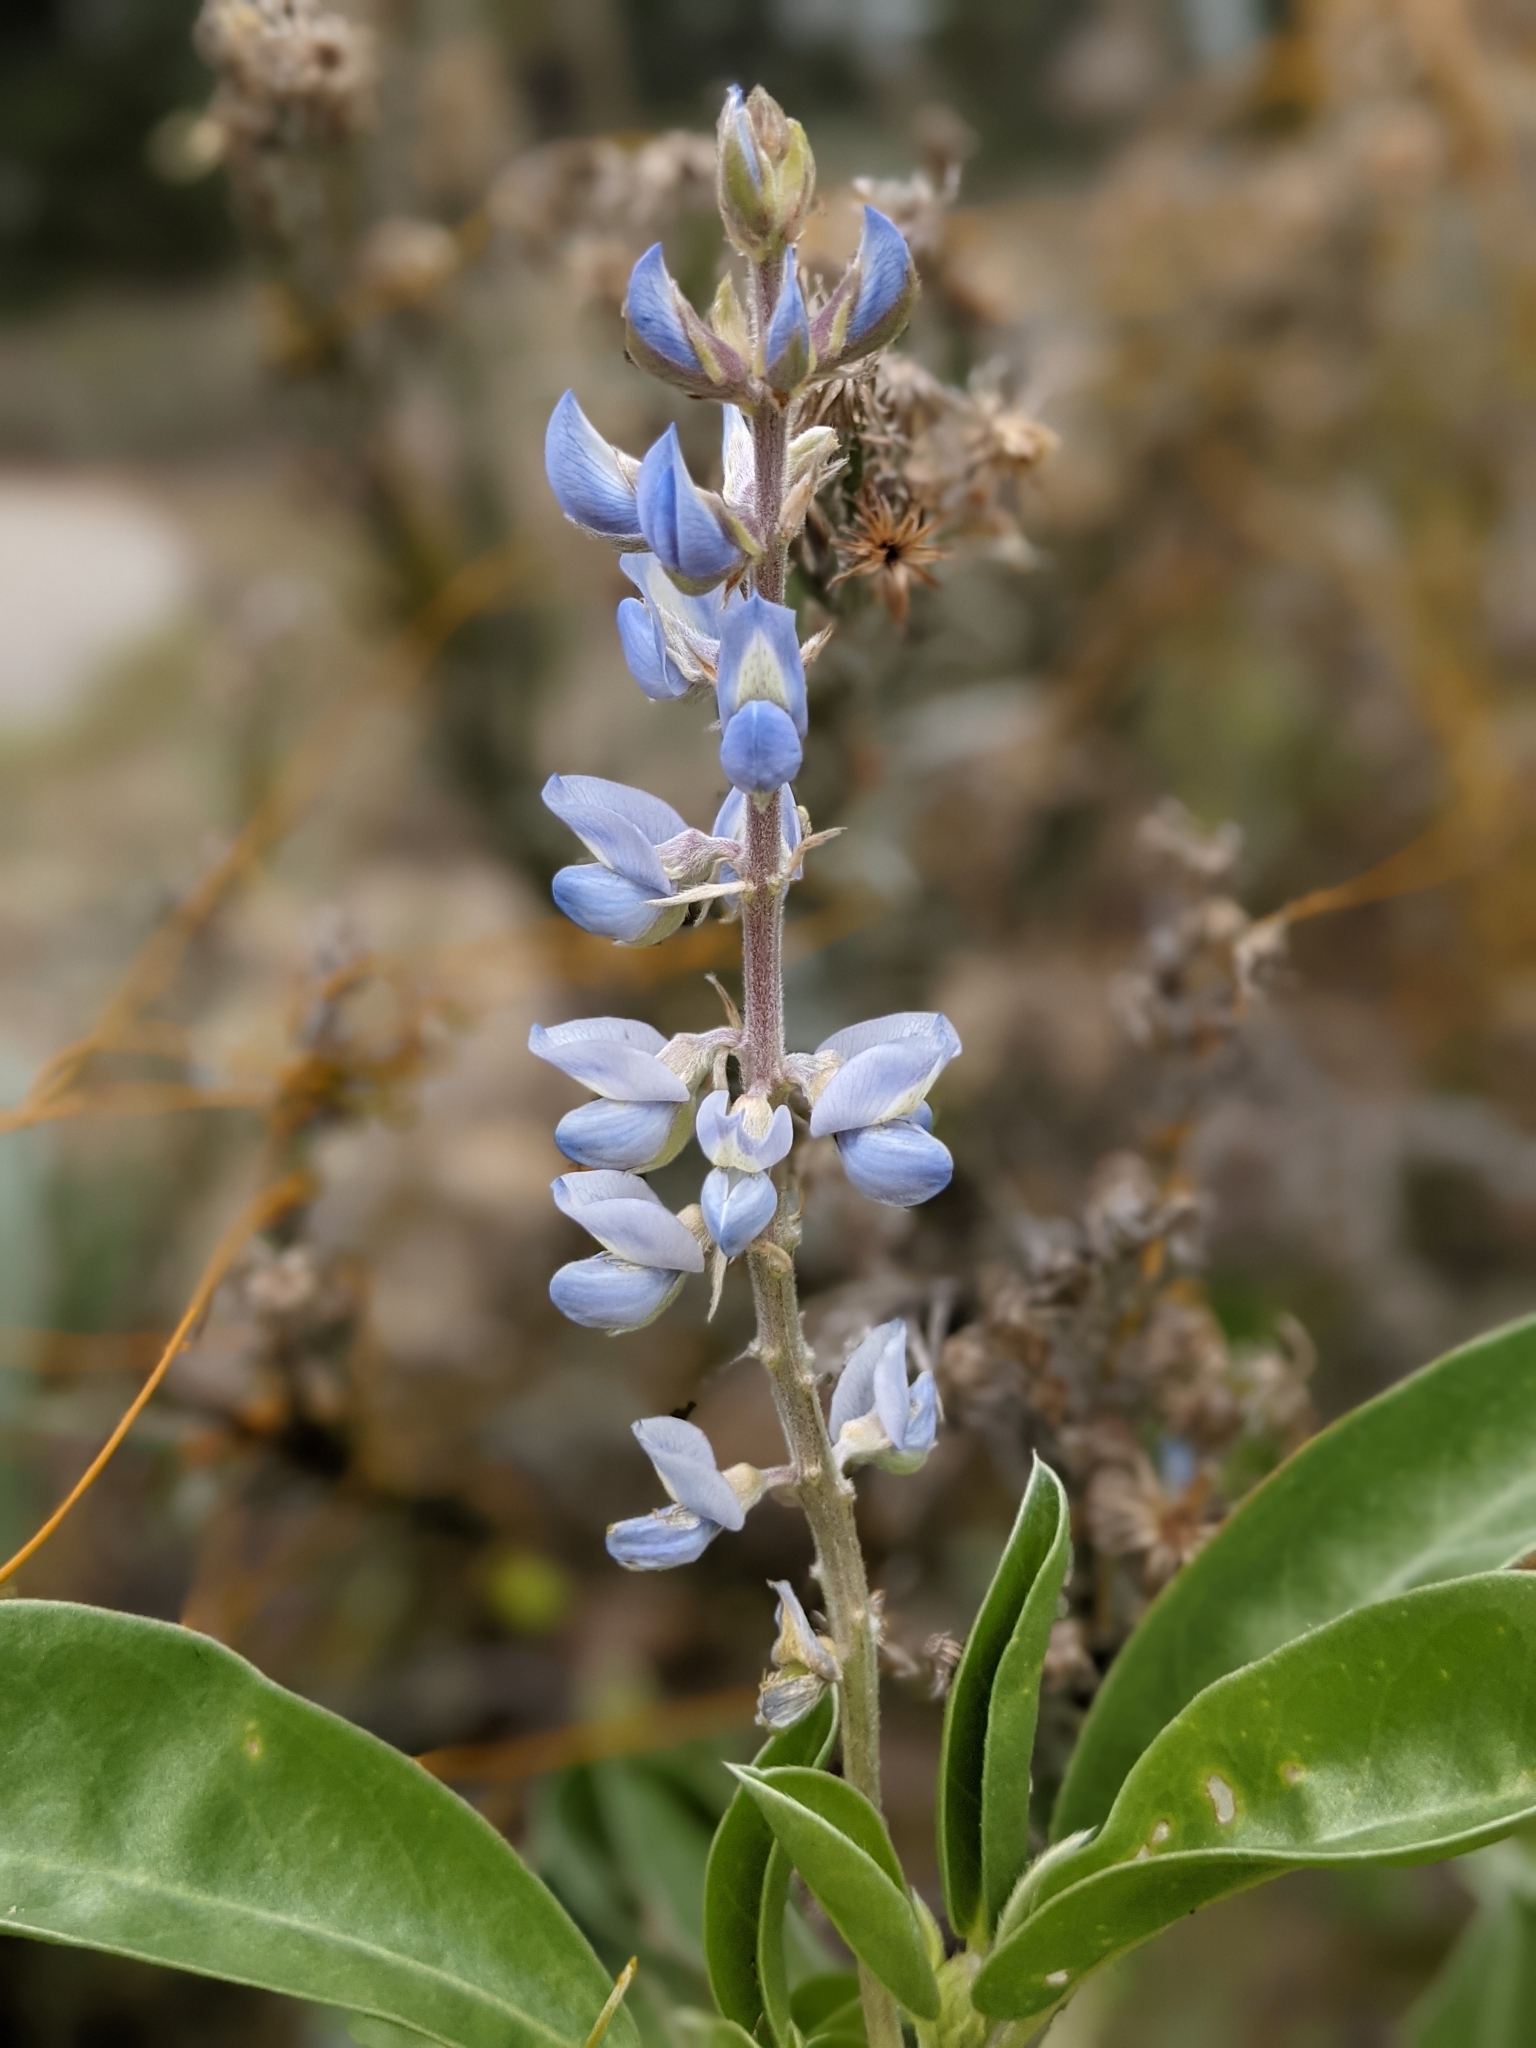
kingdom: Plantae
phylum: Tracheophyta
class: Magnoliopsida
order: Fabales
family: Fabaceae
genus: Lupinus
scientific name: Lupinus
